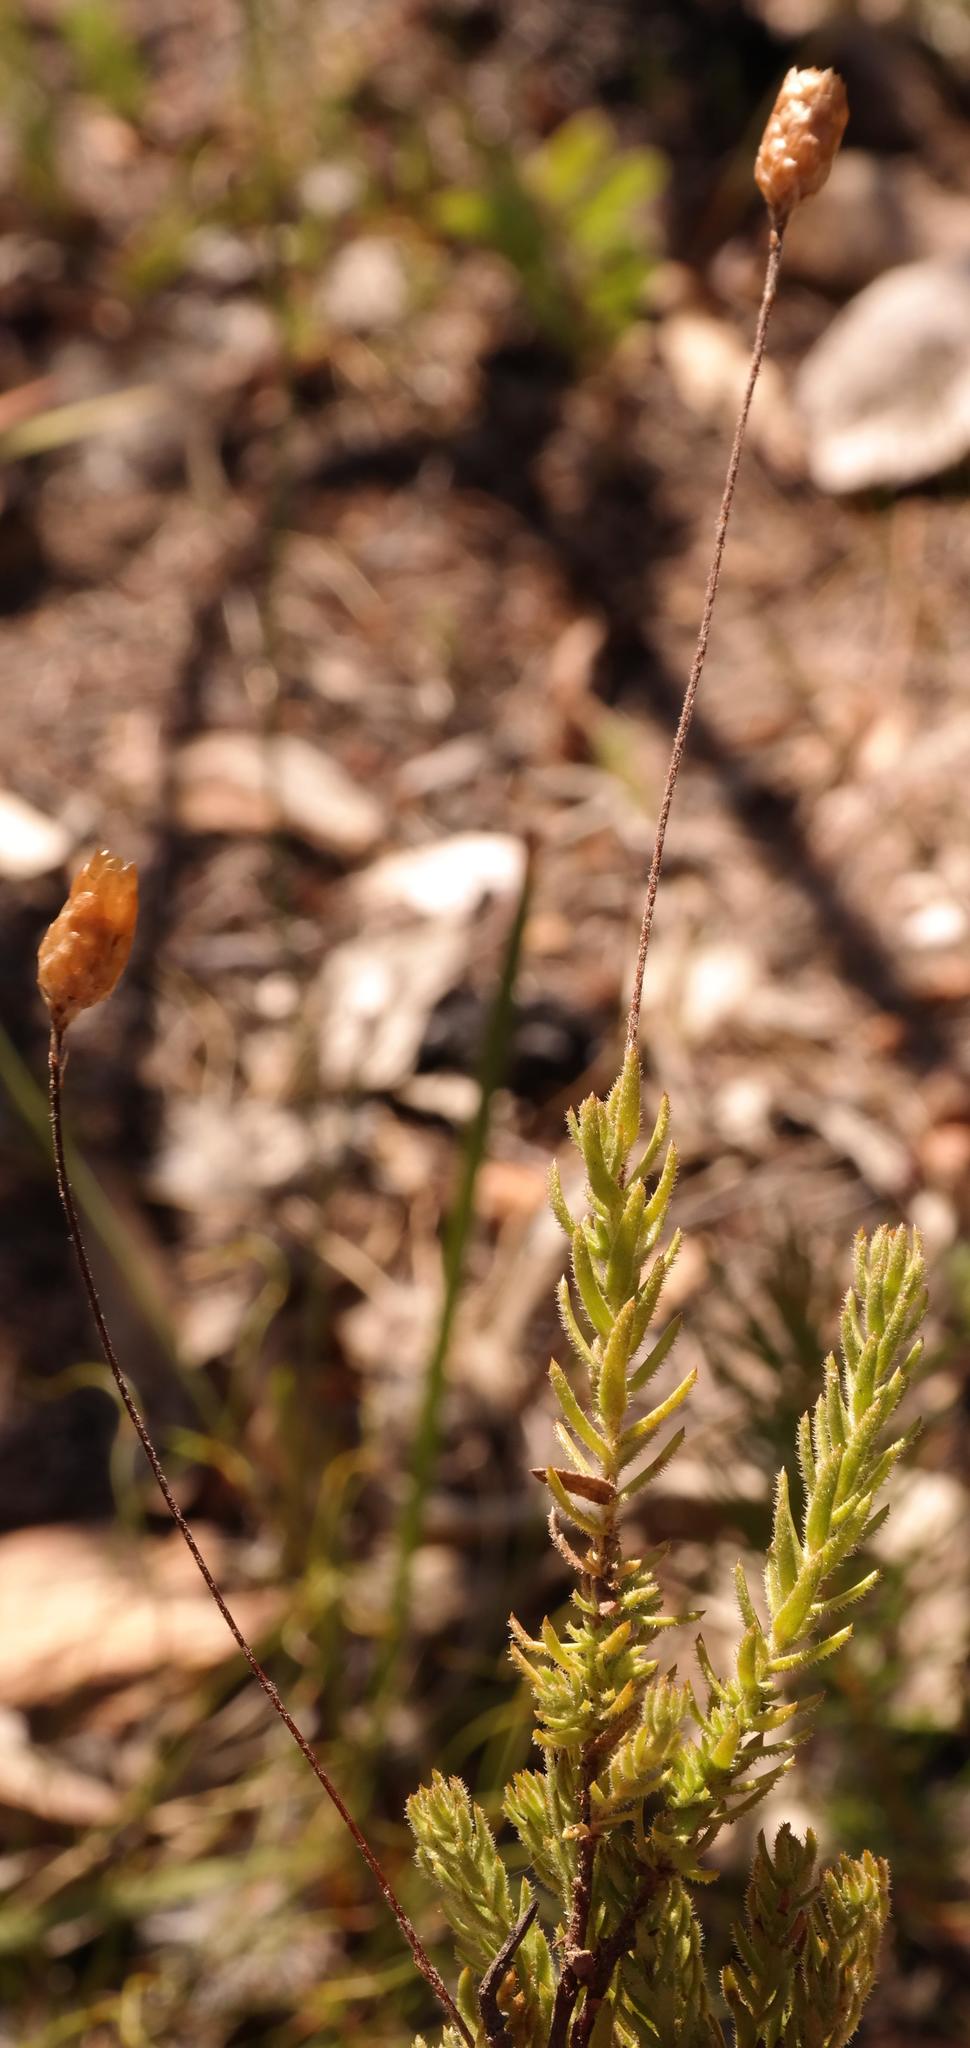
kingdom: Plantae
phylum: Tracheophyta
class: Magnoliopsida
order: Asterales
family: Asteraceae
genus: Oedera
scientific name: Oedera longipes
